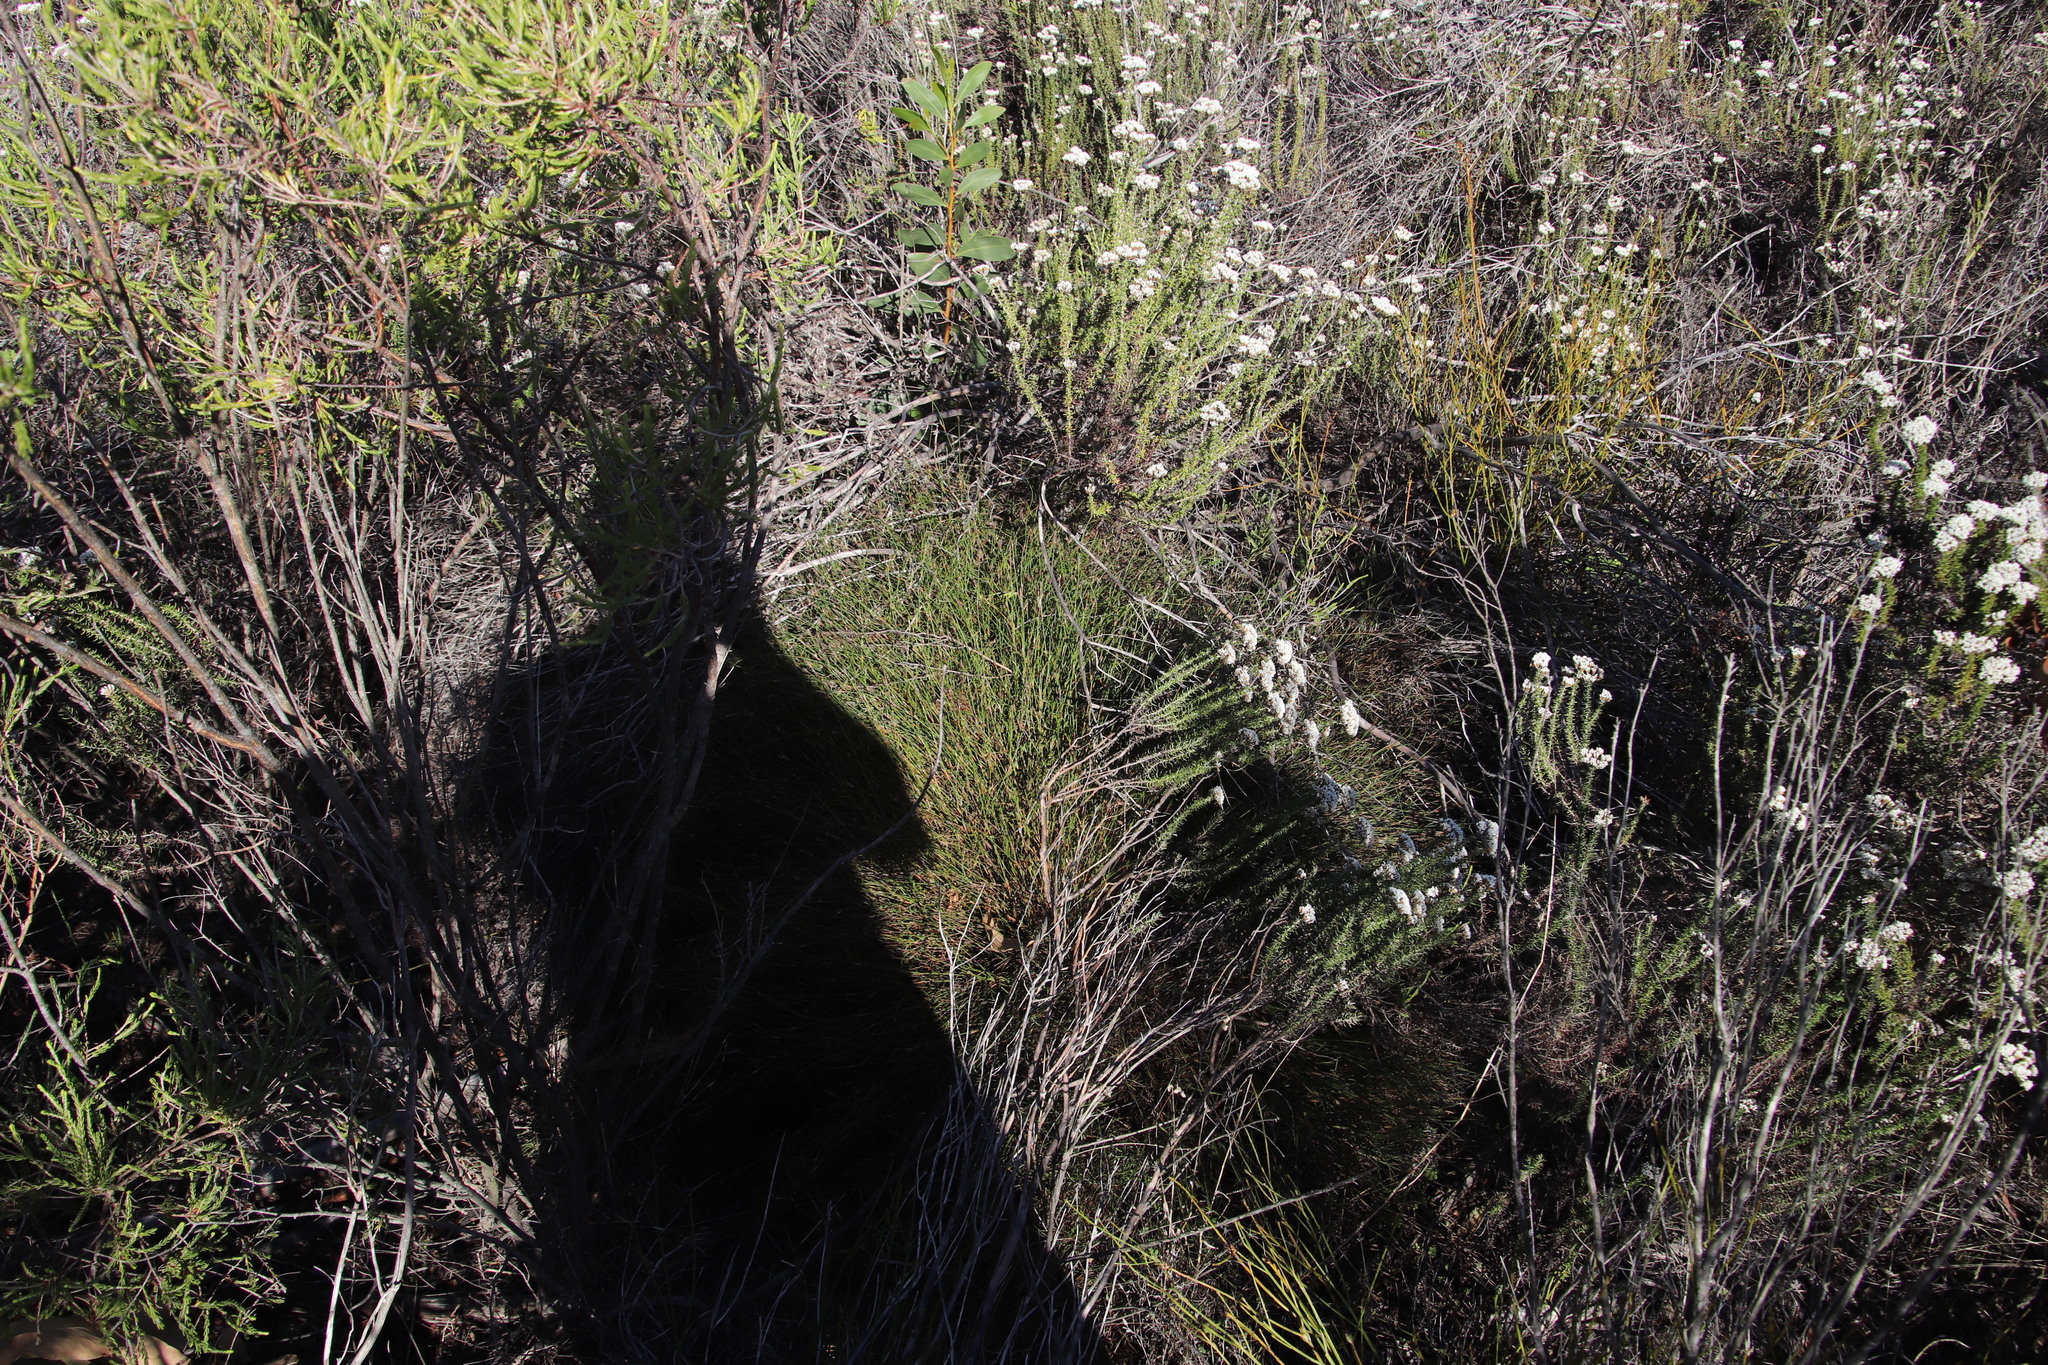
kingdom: Plantae
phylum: Tracheophyta
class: Liliopsida
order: Poales
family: Restionaceae
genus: Restio
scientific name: Restio capensis
